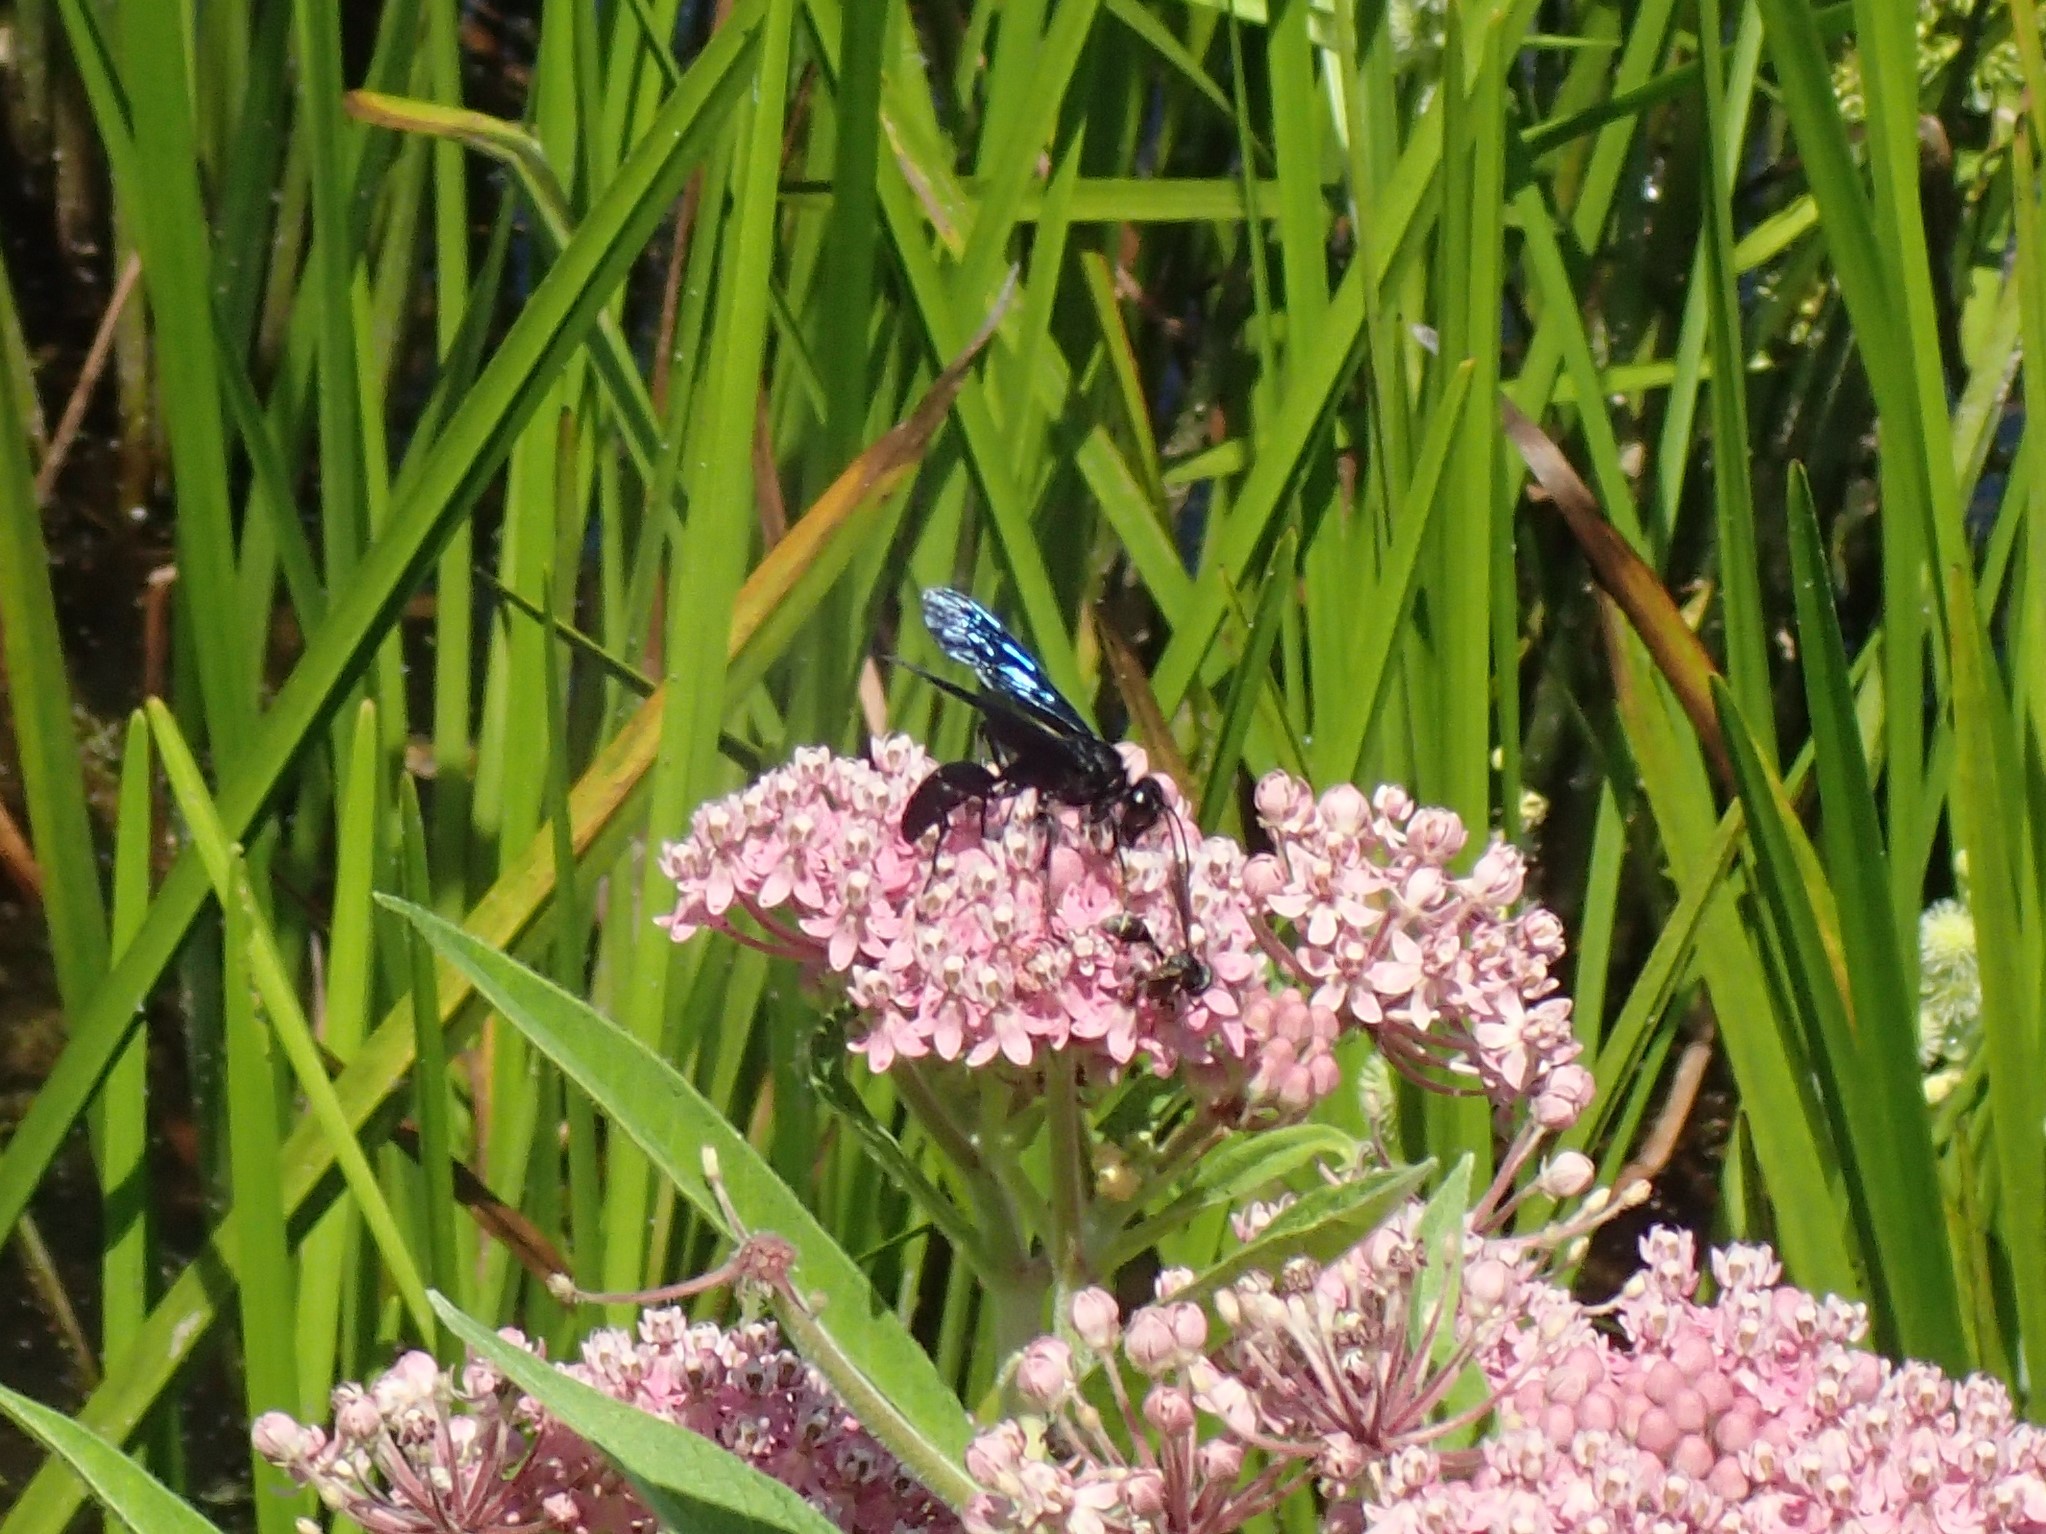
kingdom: Animalia
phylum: Arthropoda
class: Insecta
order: Hymenoptera
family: Sphecidae
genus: Sphex
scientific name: Sphex pensylvanicus
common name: Great black digger wasp
